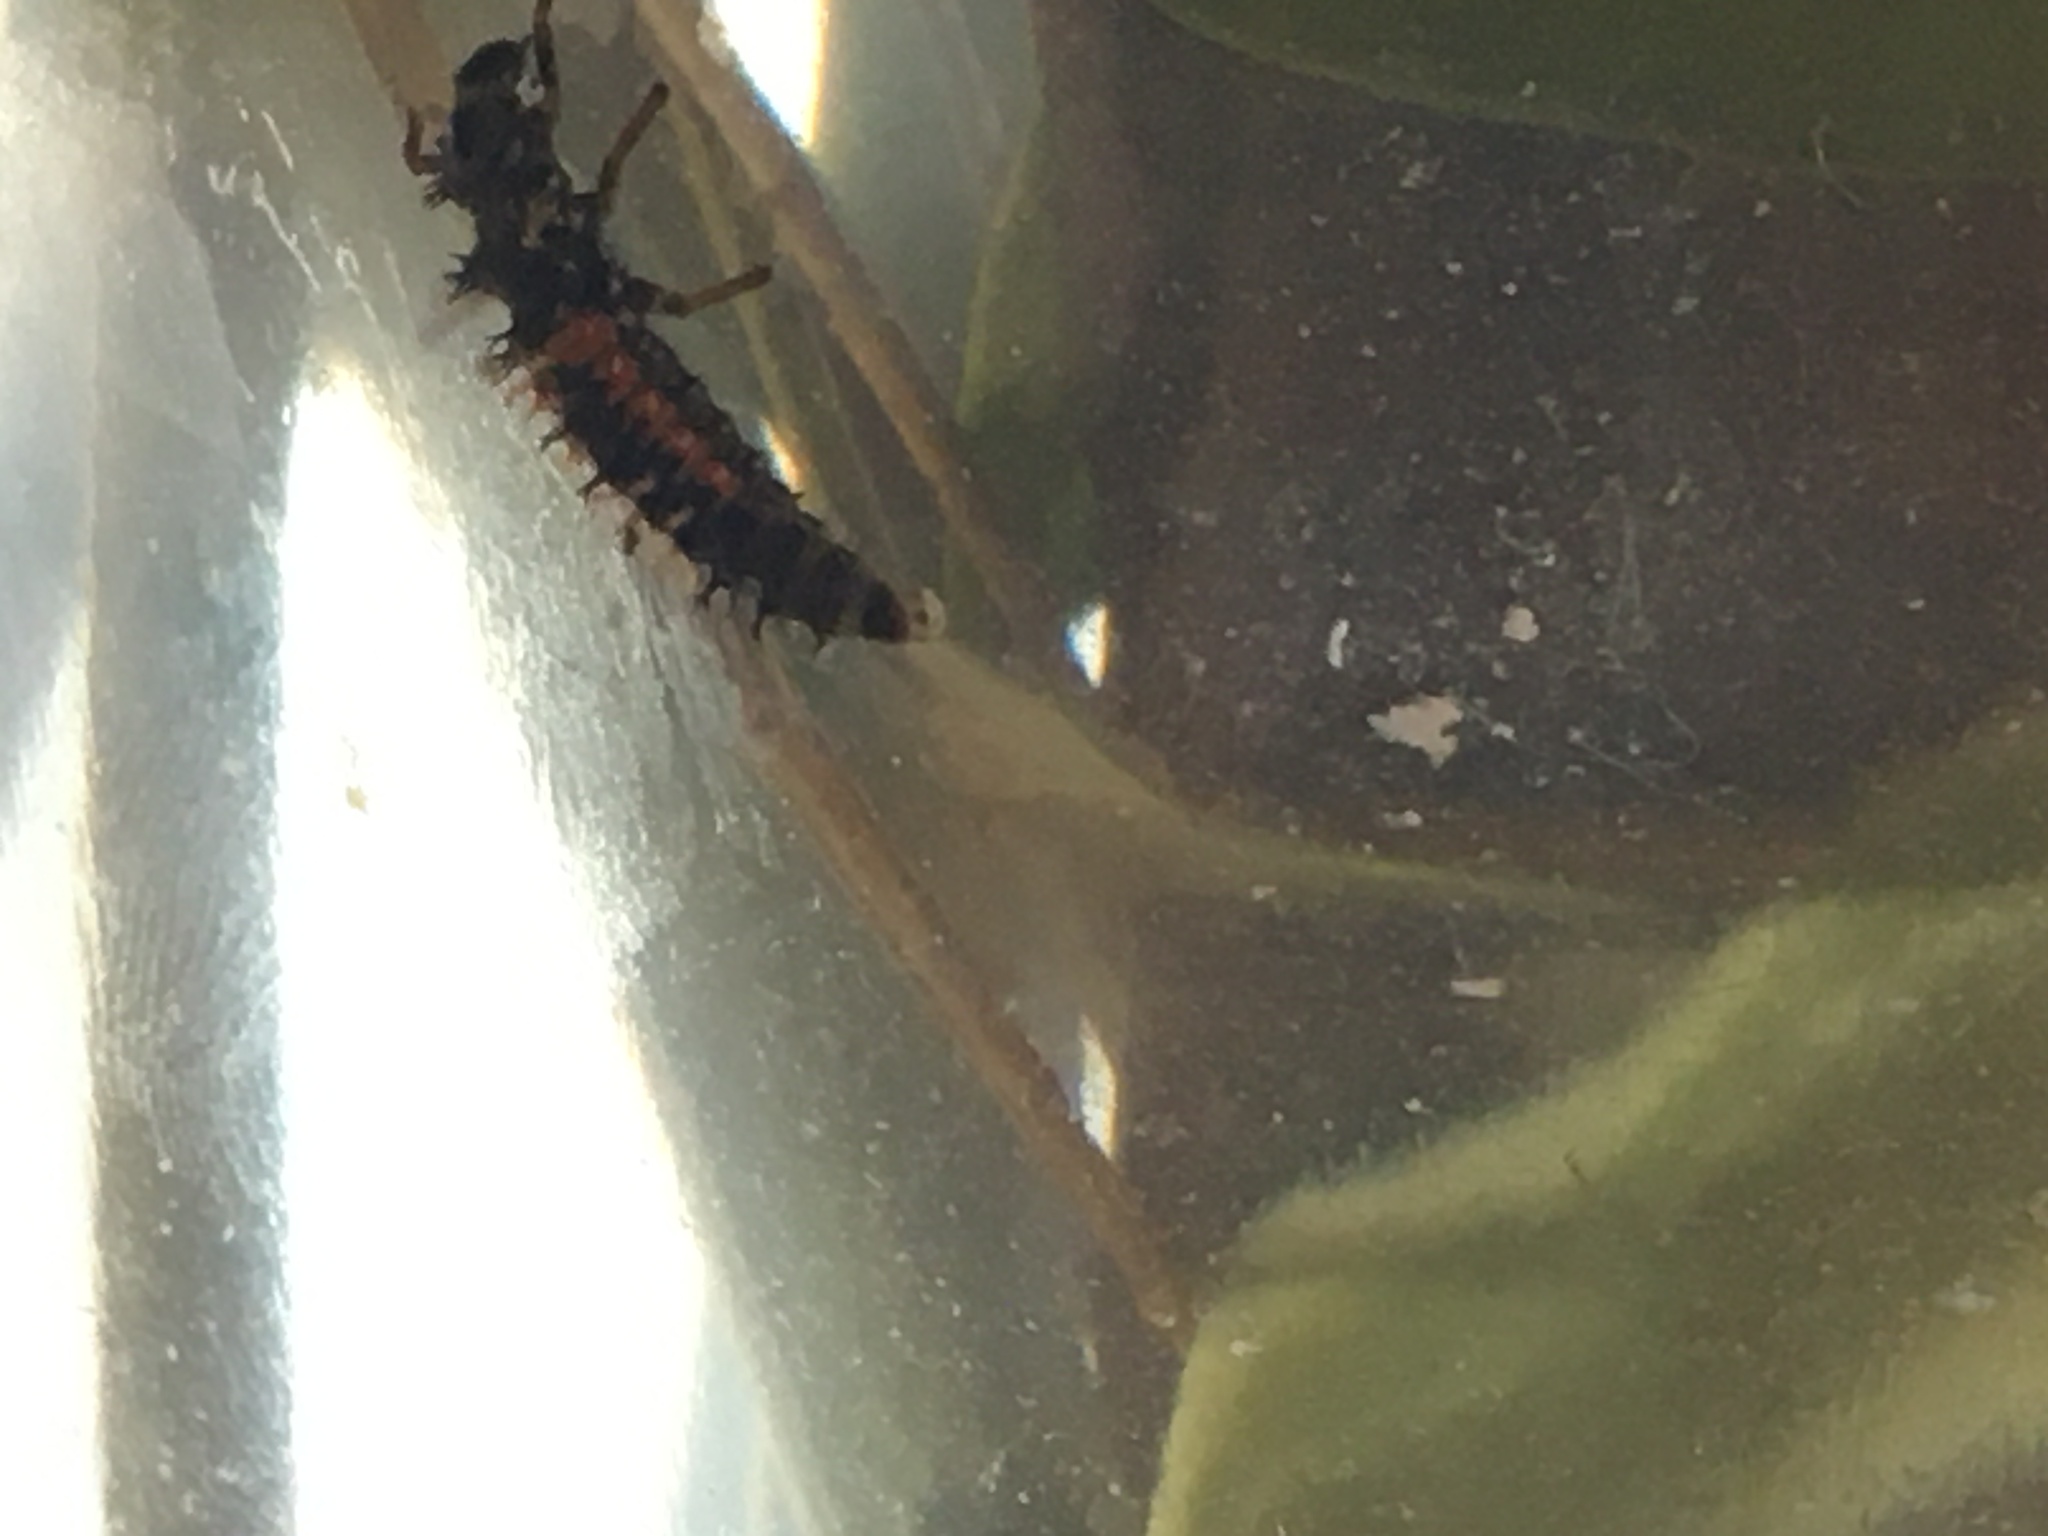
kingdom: Animalia
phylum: Arthropoda
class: Insecta
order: Coleoptera
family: Coccinellidae
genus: Harmonia
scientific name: Harmonia axyridis
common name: Harlequin ladybird
